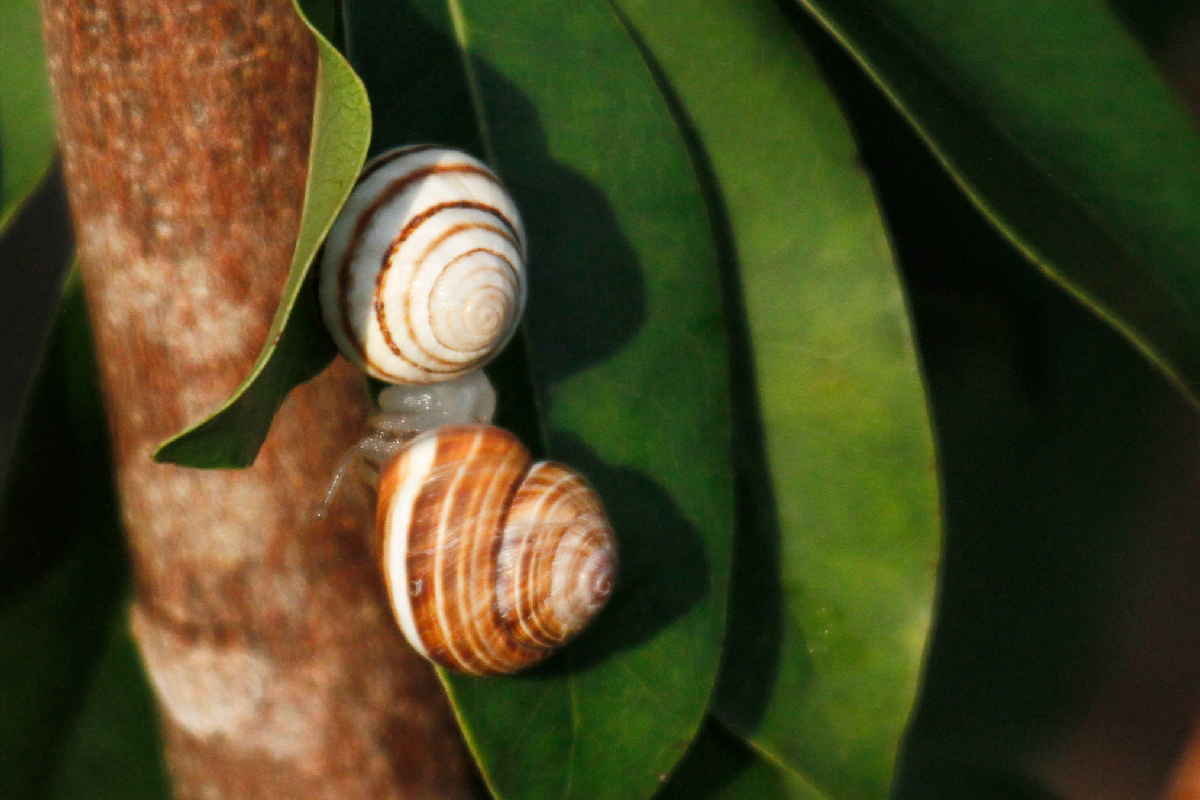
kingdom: Animalia
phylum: Mollusca
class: Gastropoda
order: Stylommatophora
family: Cepolidae
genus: Hemitrochus
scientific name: Hemitrochus varians
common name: Caribbean land snail
